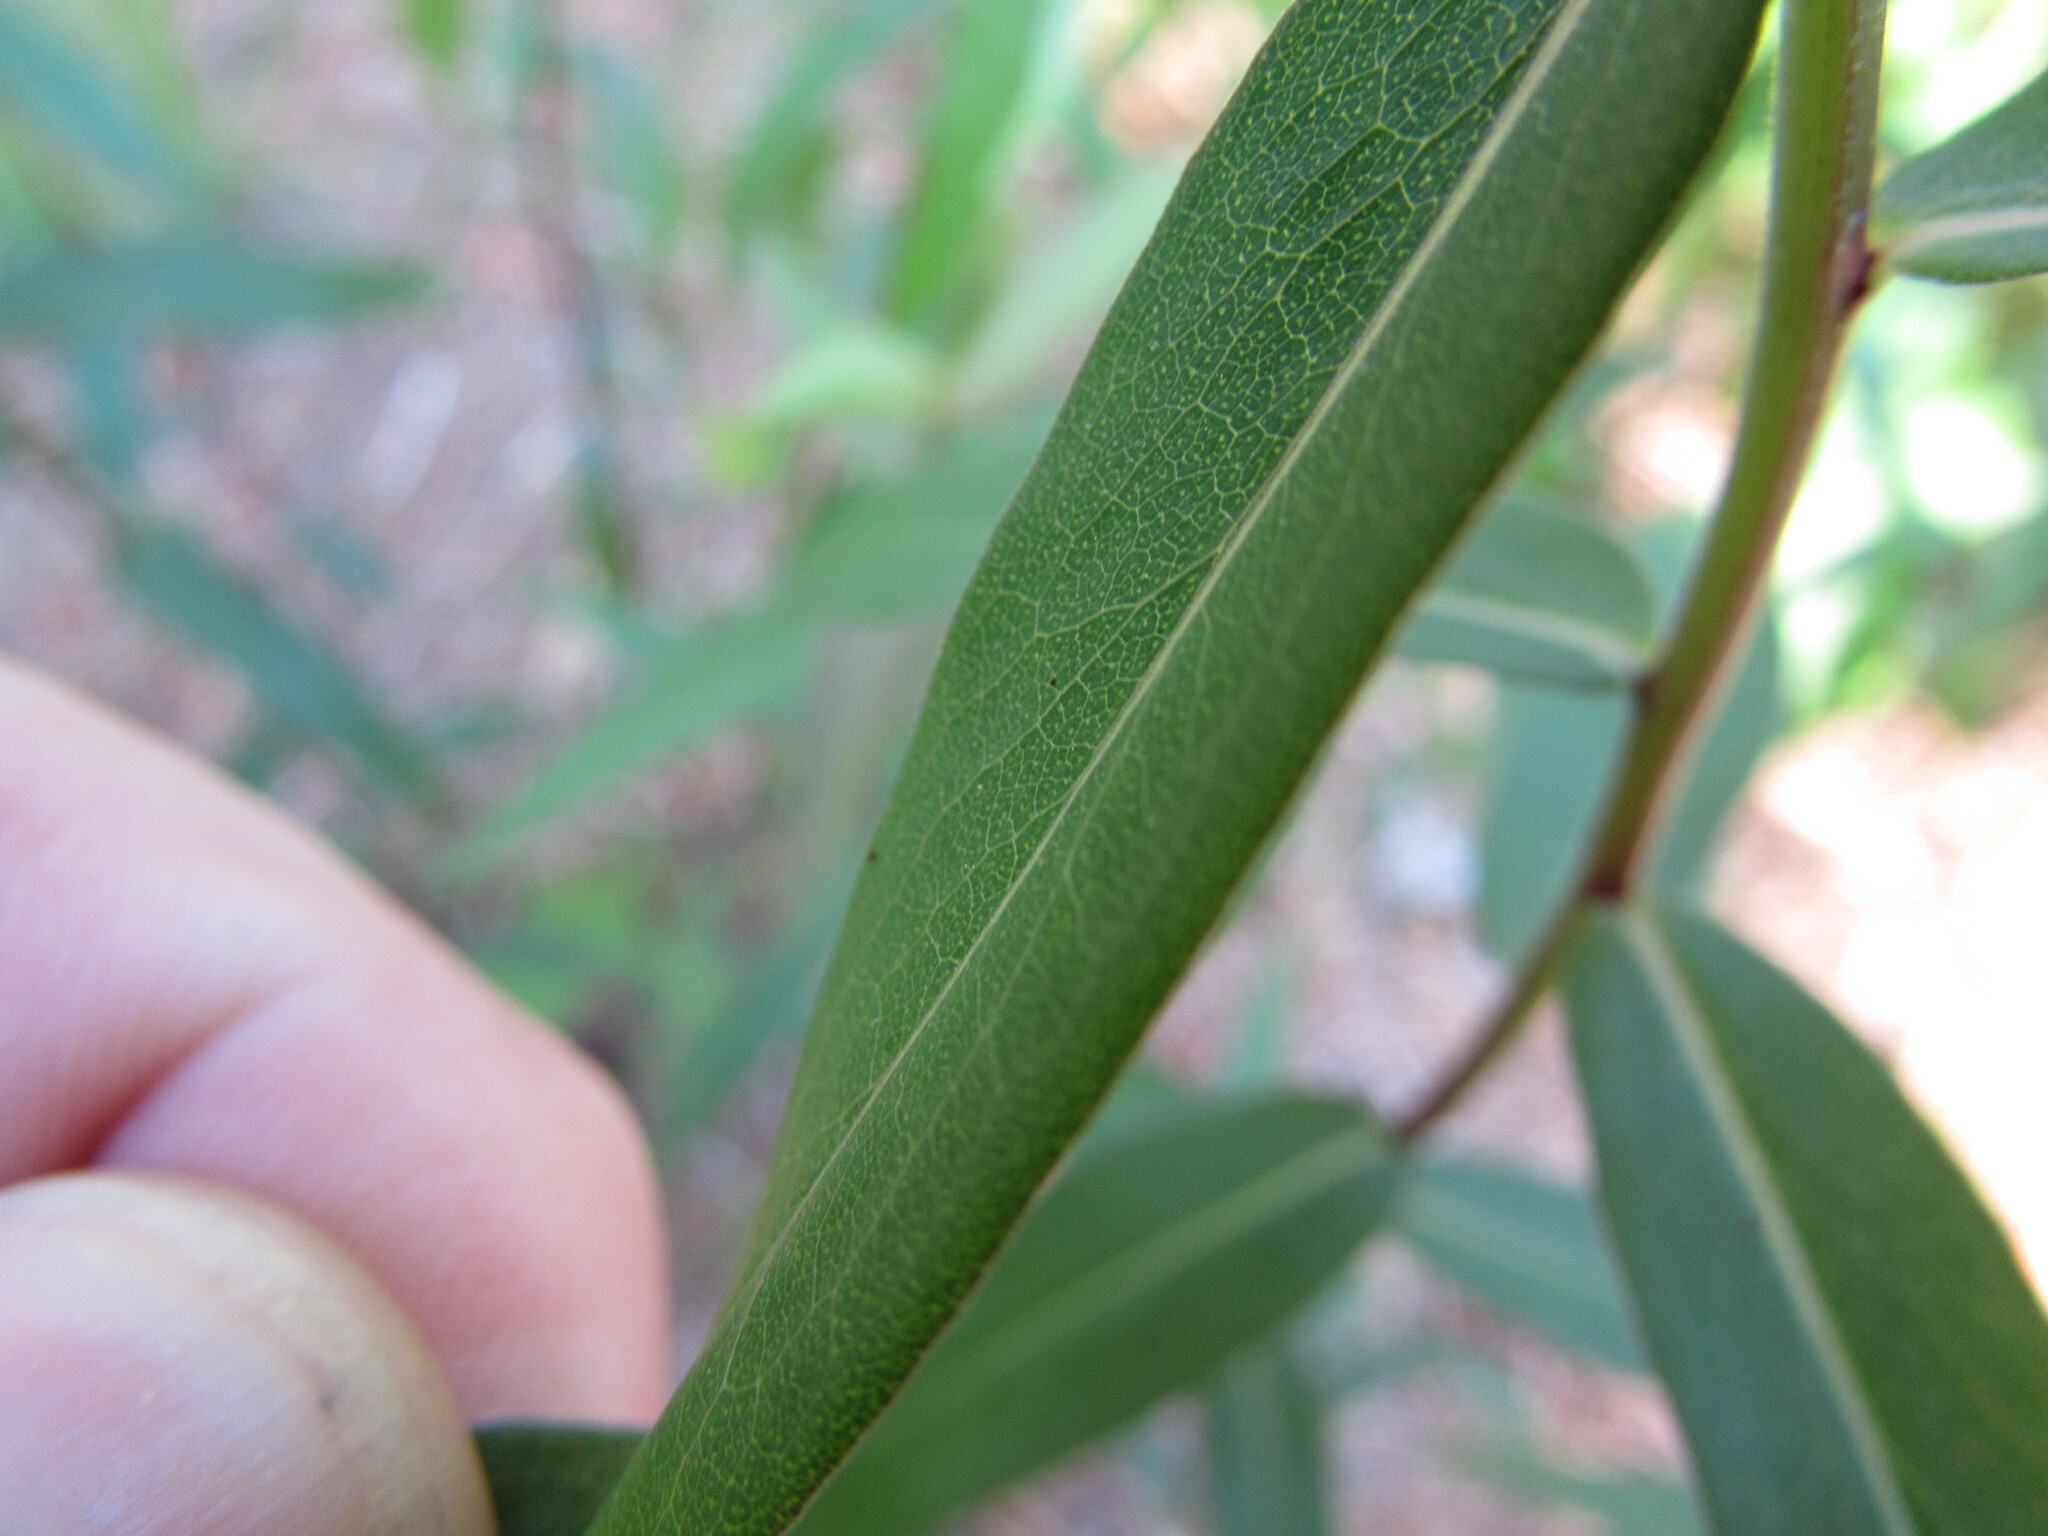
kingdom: Plantae
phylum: Tracheophyta
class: Magnoliopsida
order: Asterales
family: Asteraceae
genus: Solidago
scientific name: Solidago odora
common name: Anise-scented goldenrod
